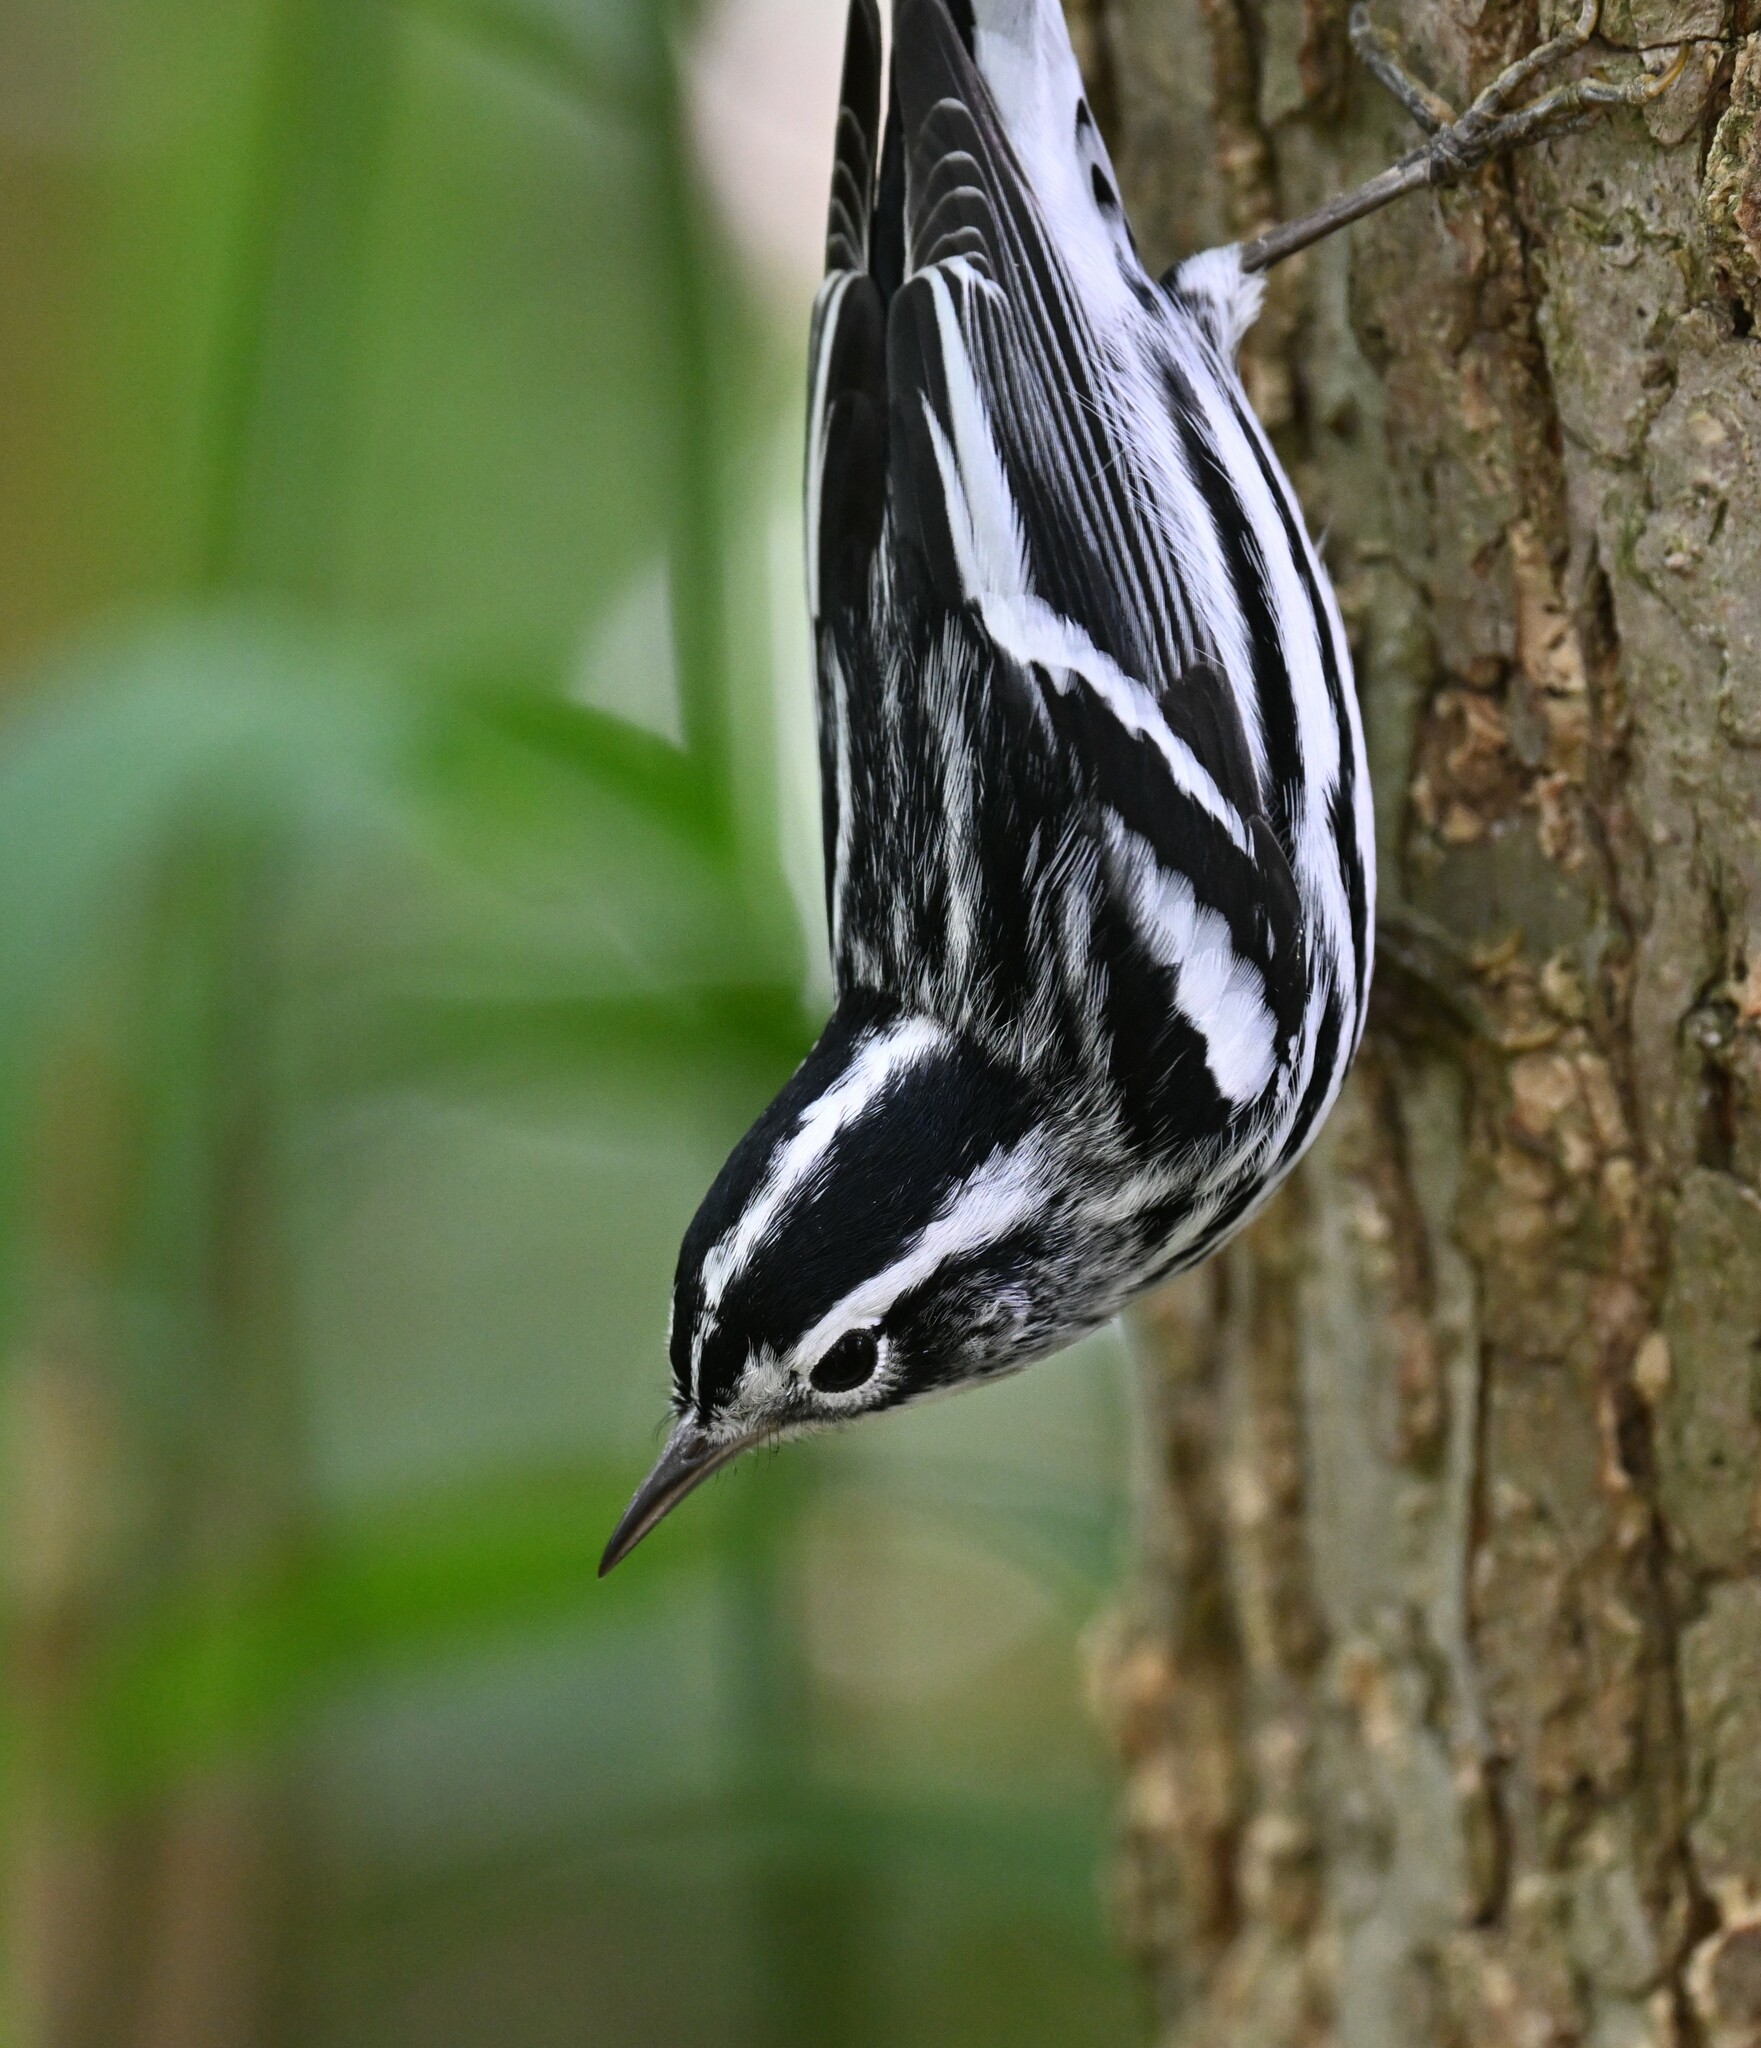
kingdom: Animalia
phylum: Chordata
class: Aves
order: Passeriformes
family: Parulidae
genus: Mniotilta
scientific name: Mniotilta varia
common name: Black-and-white warbler
